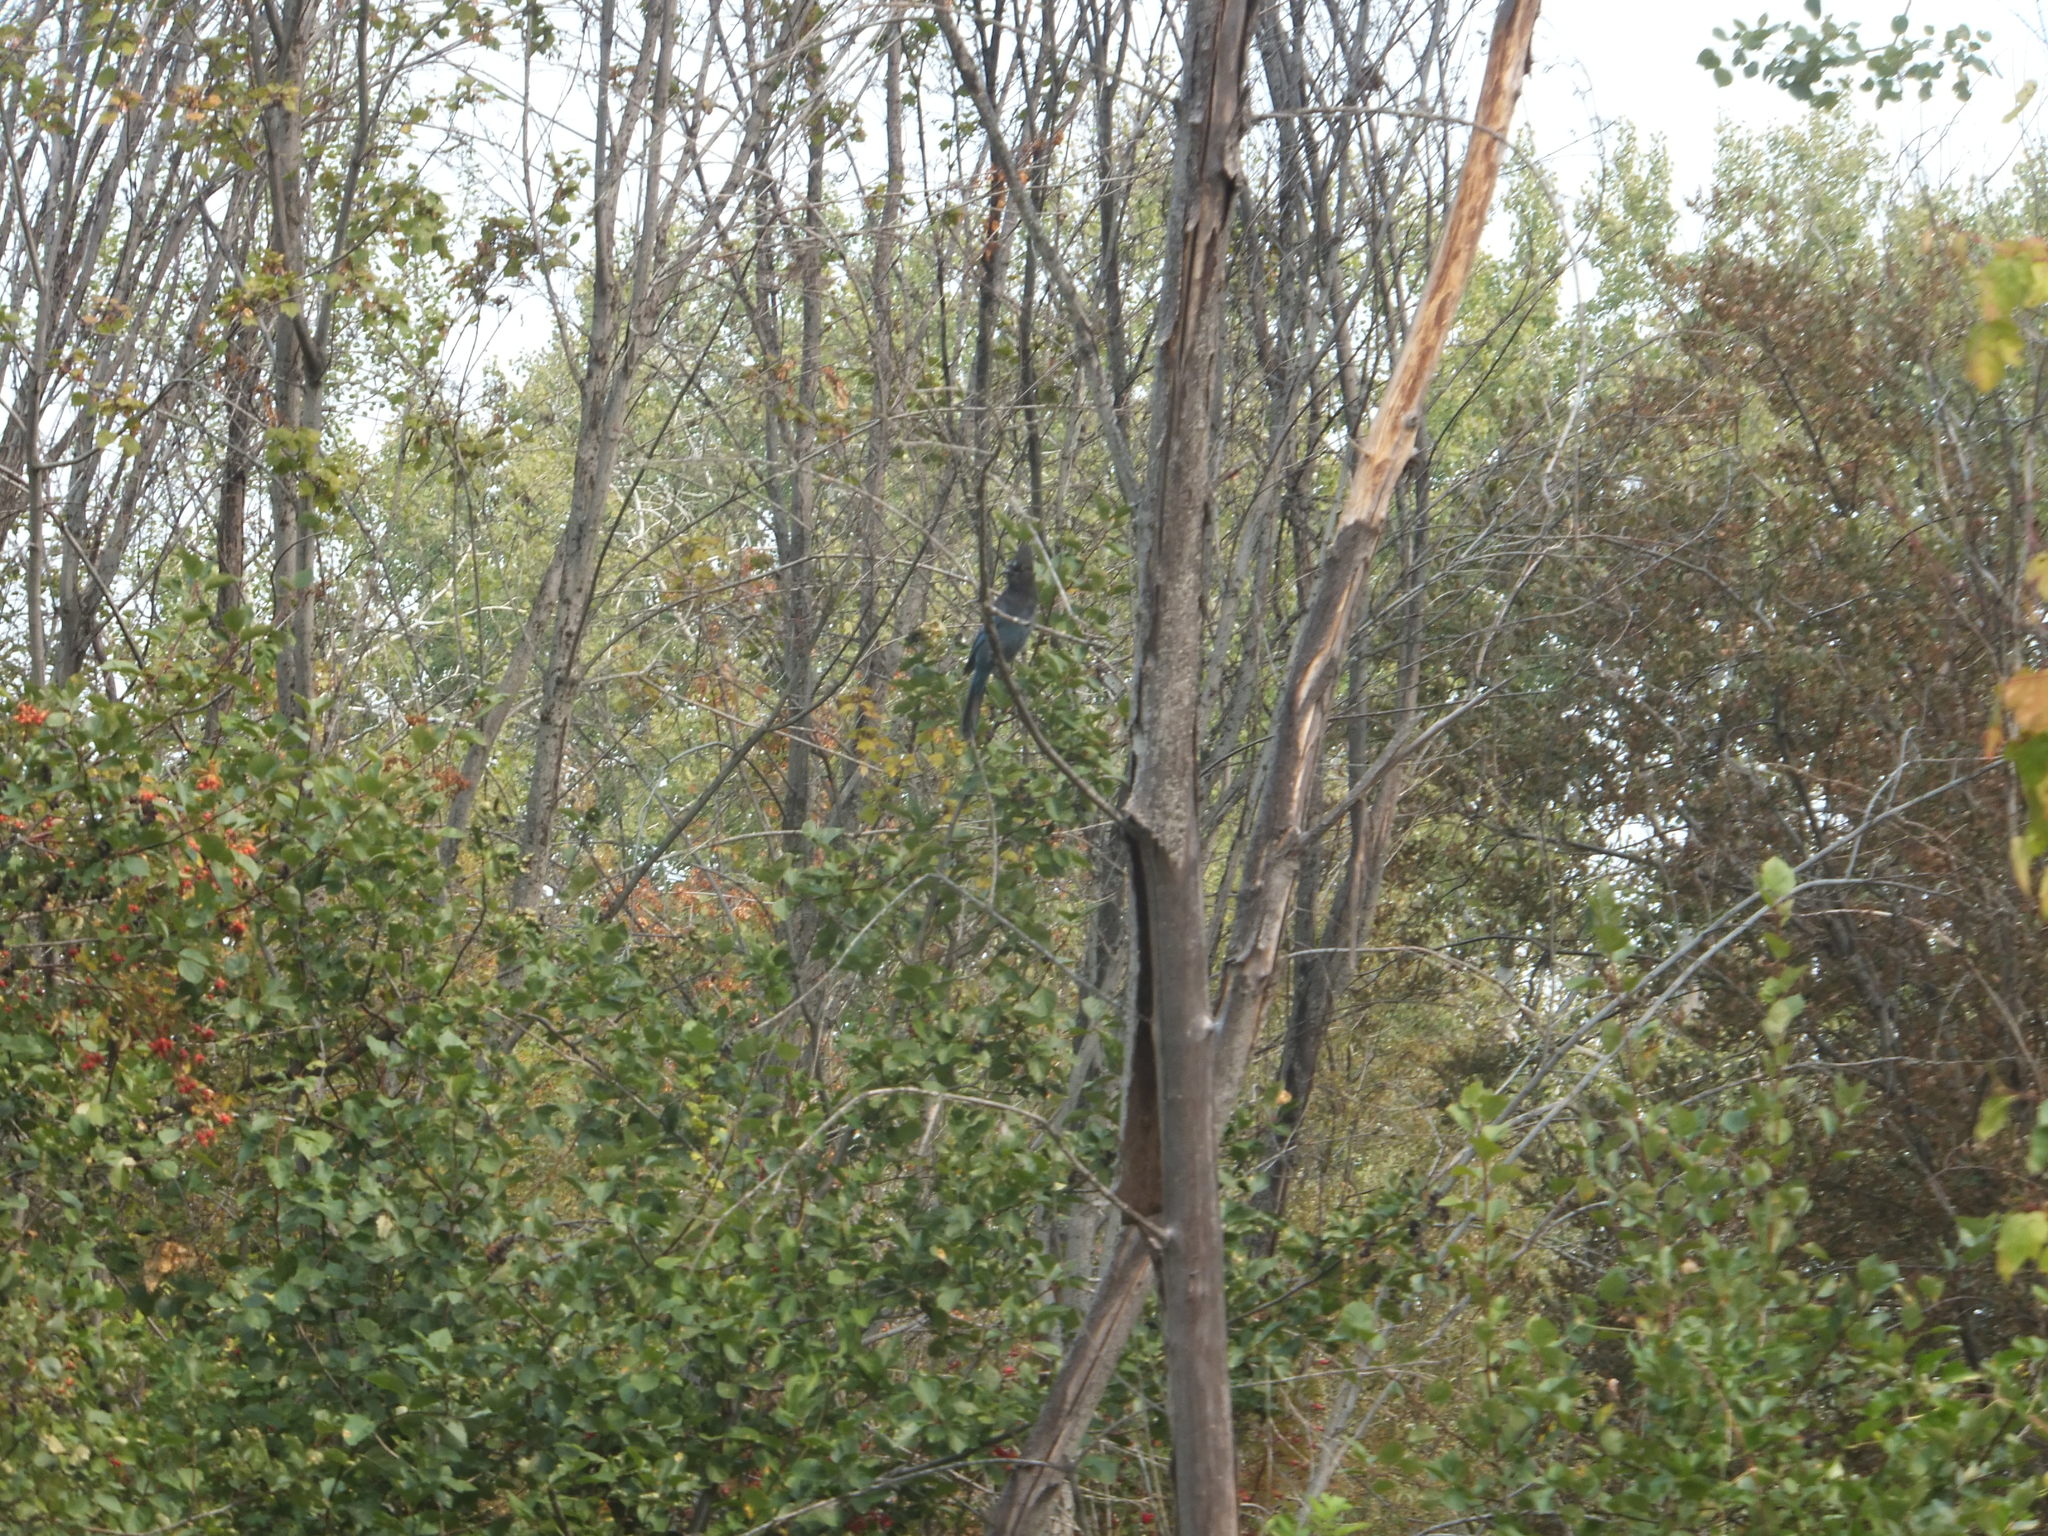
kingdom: Animalia
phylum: Chordata
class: Aves
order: Passeriformes
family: Corvidae
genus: Cyanocitta
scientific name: Cyanocitta stelleri
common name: Steller's jay
